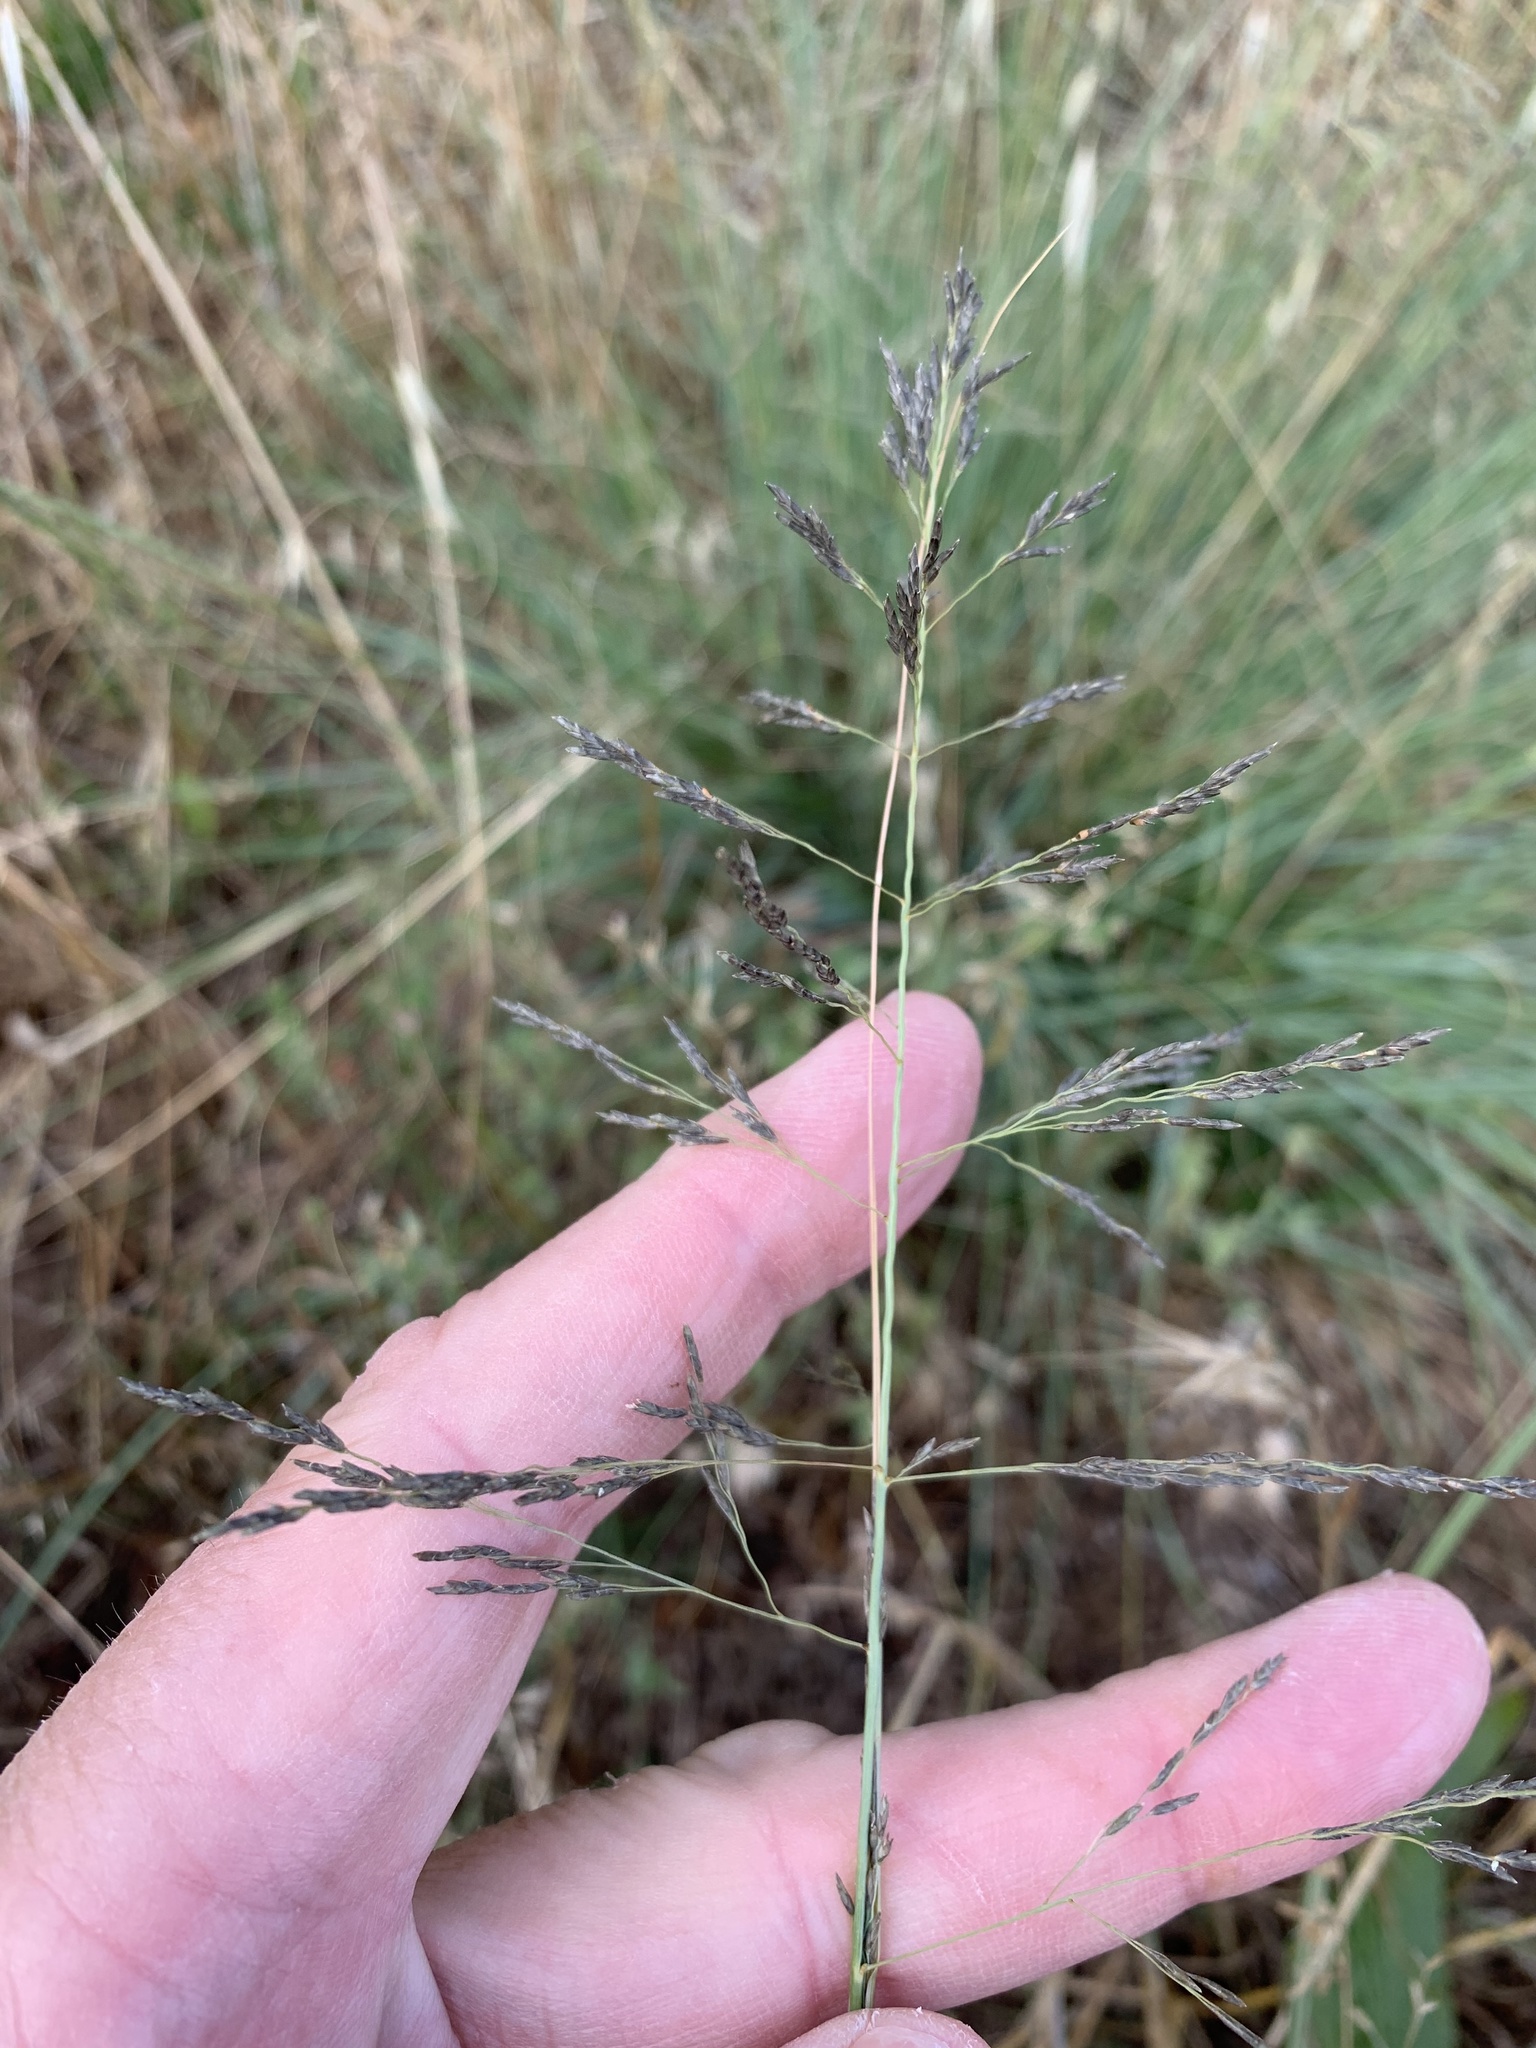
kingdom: Plantae
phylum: Tracheophyta
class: Liliopsida
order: Poales
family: Poaceae
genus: Eragrostis
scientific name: Eragrostis curvula
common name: African love-grass
